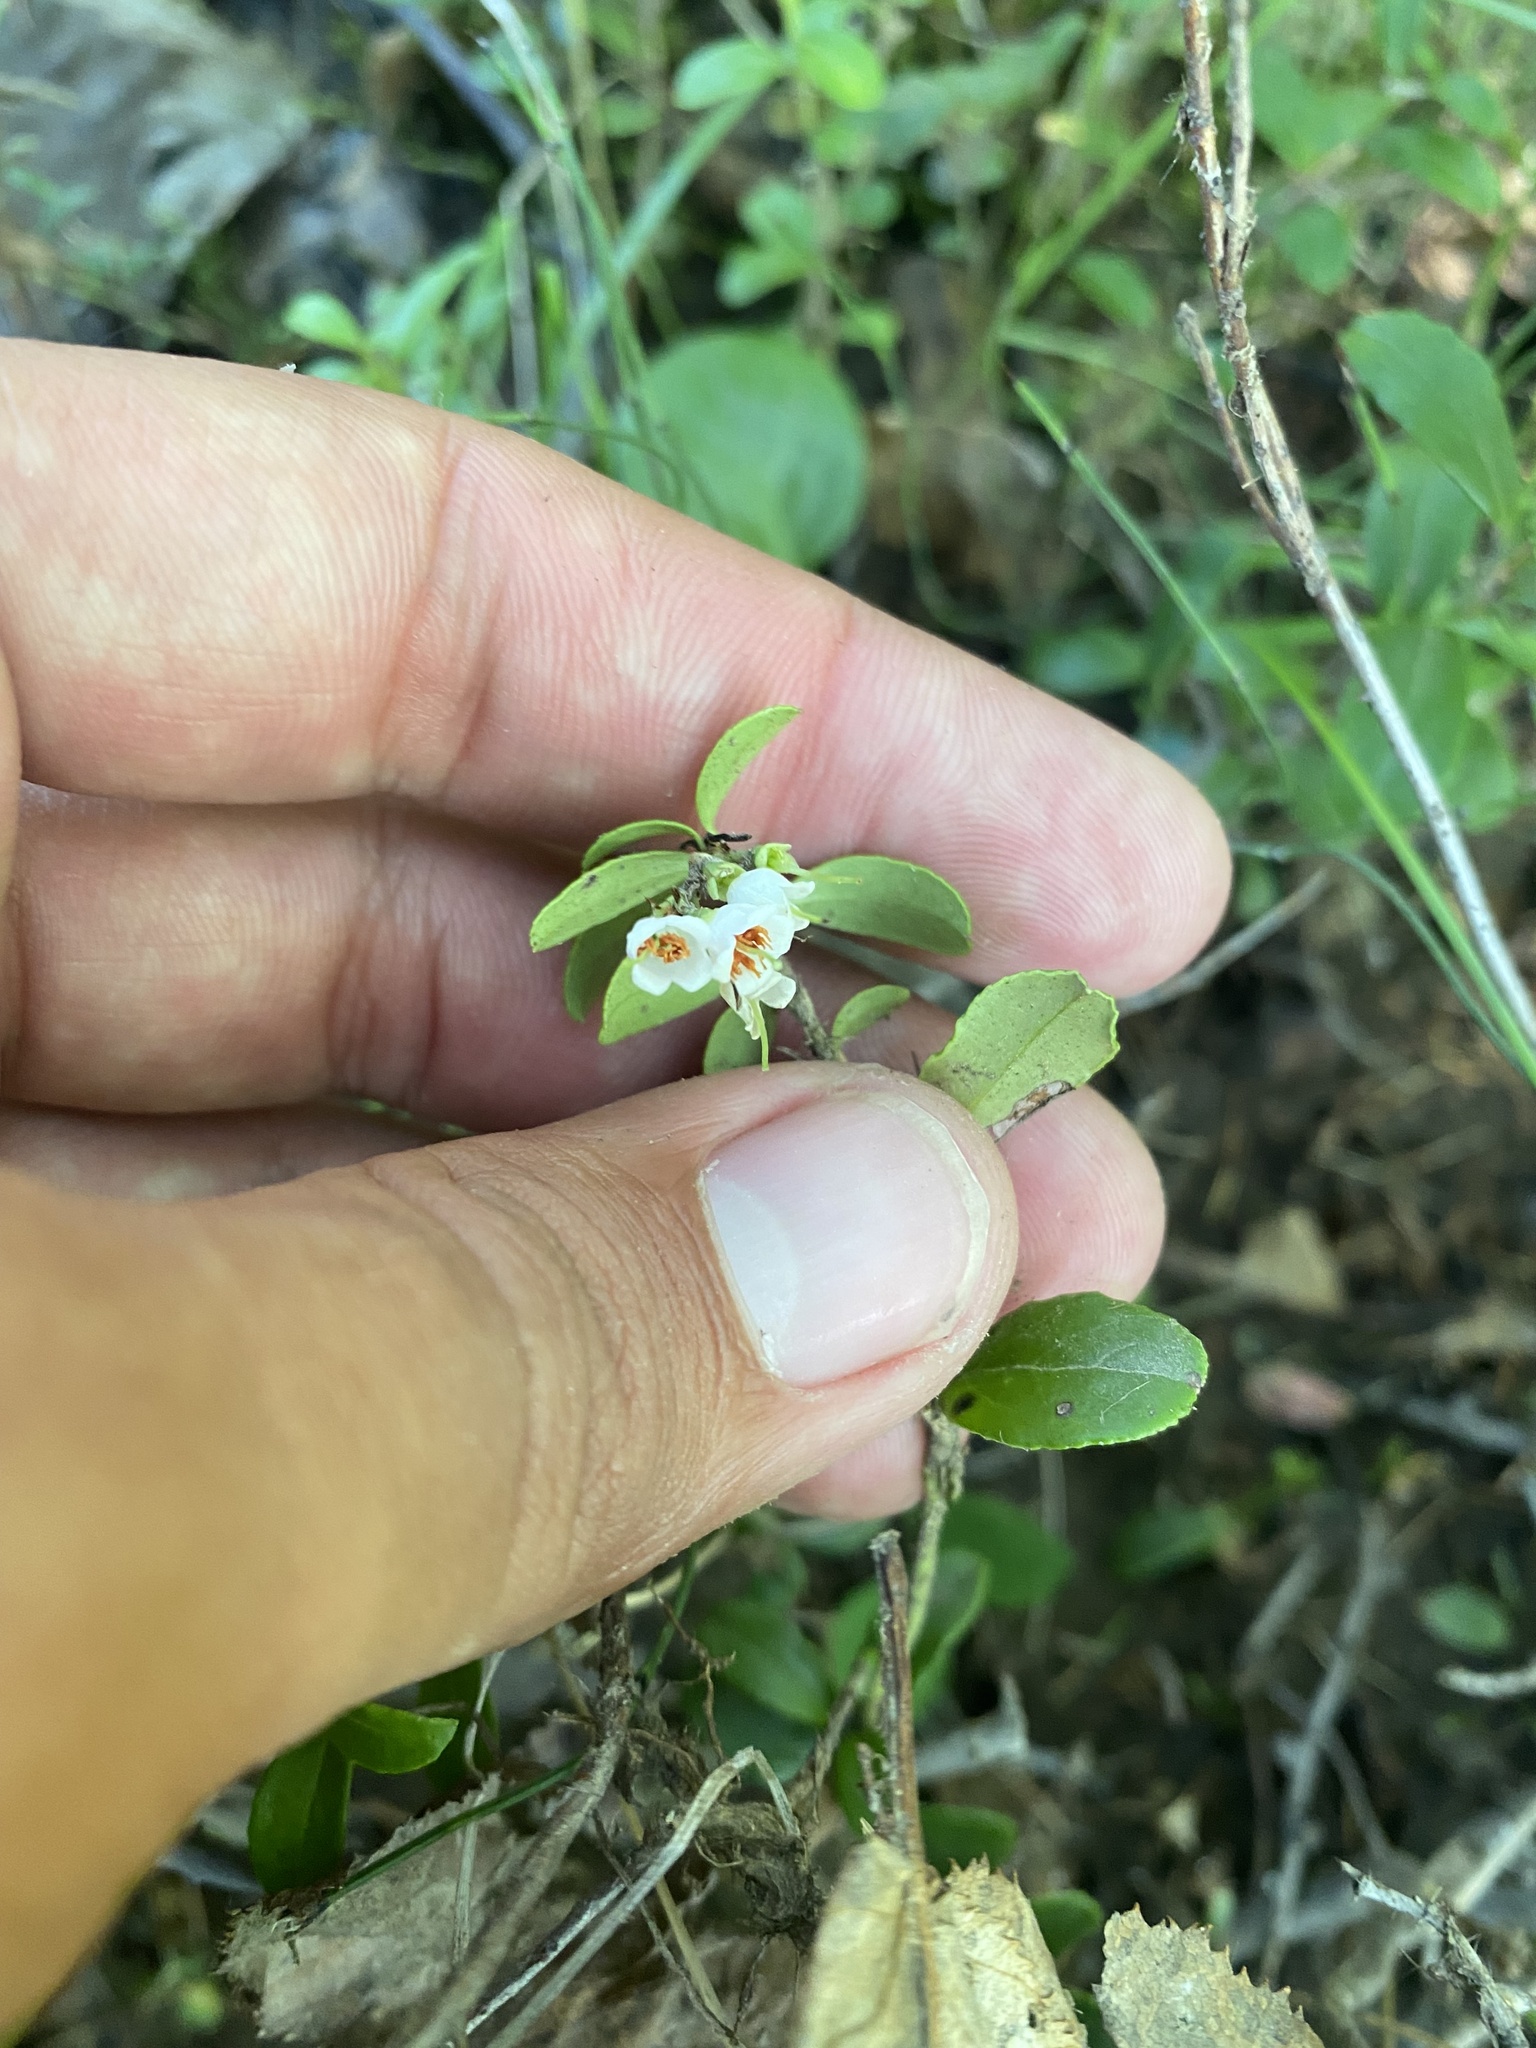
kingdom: Plantae
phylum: Tracheophyta
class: Magnoliopsida
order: Ericales
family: Ericaceae
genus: Vaccinium
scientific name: Vaccinium vitis-idaea
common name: Cowberry
